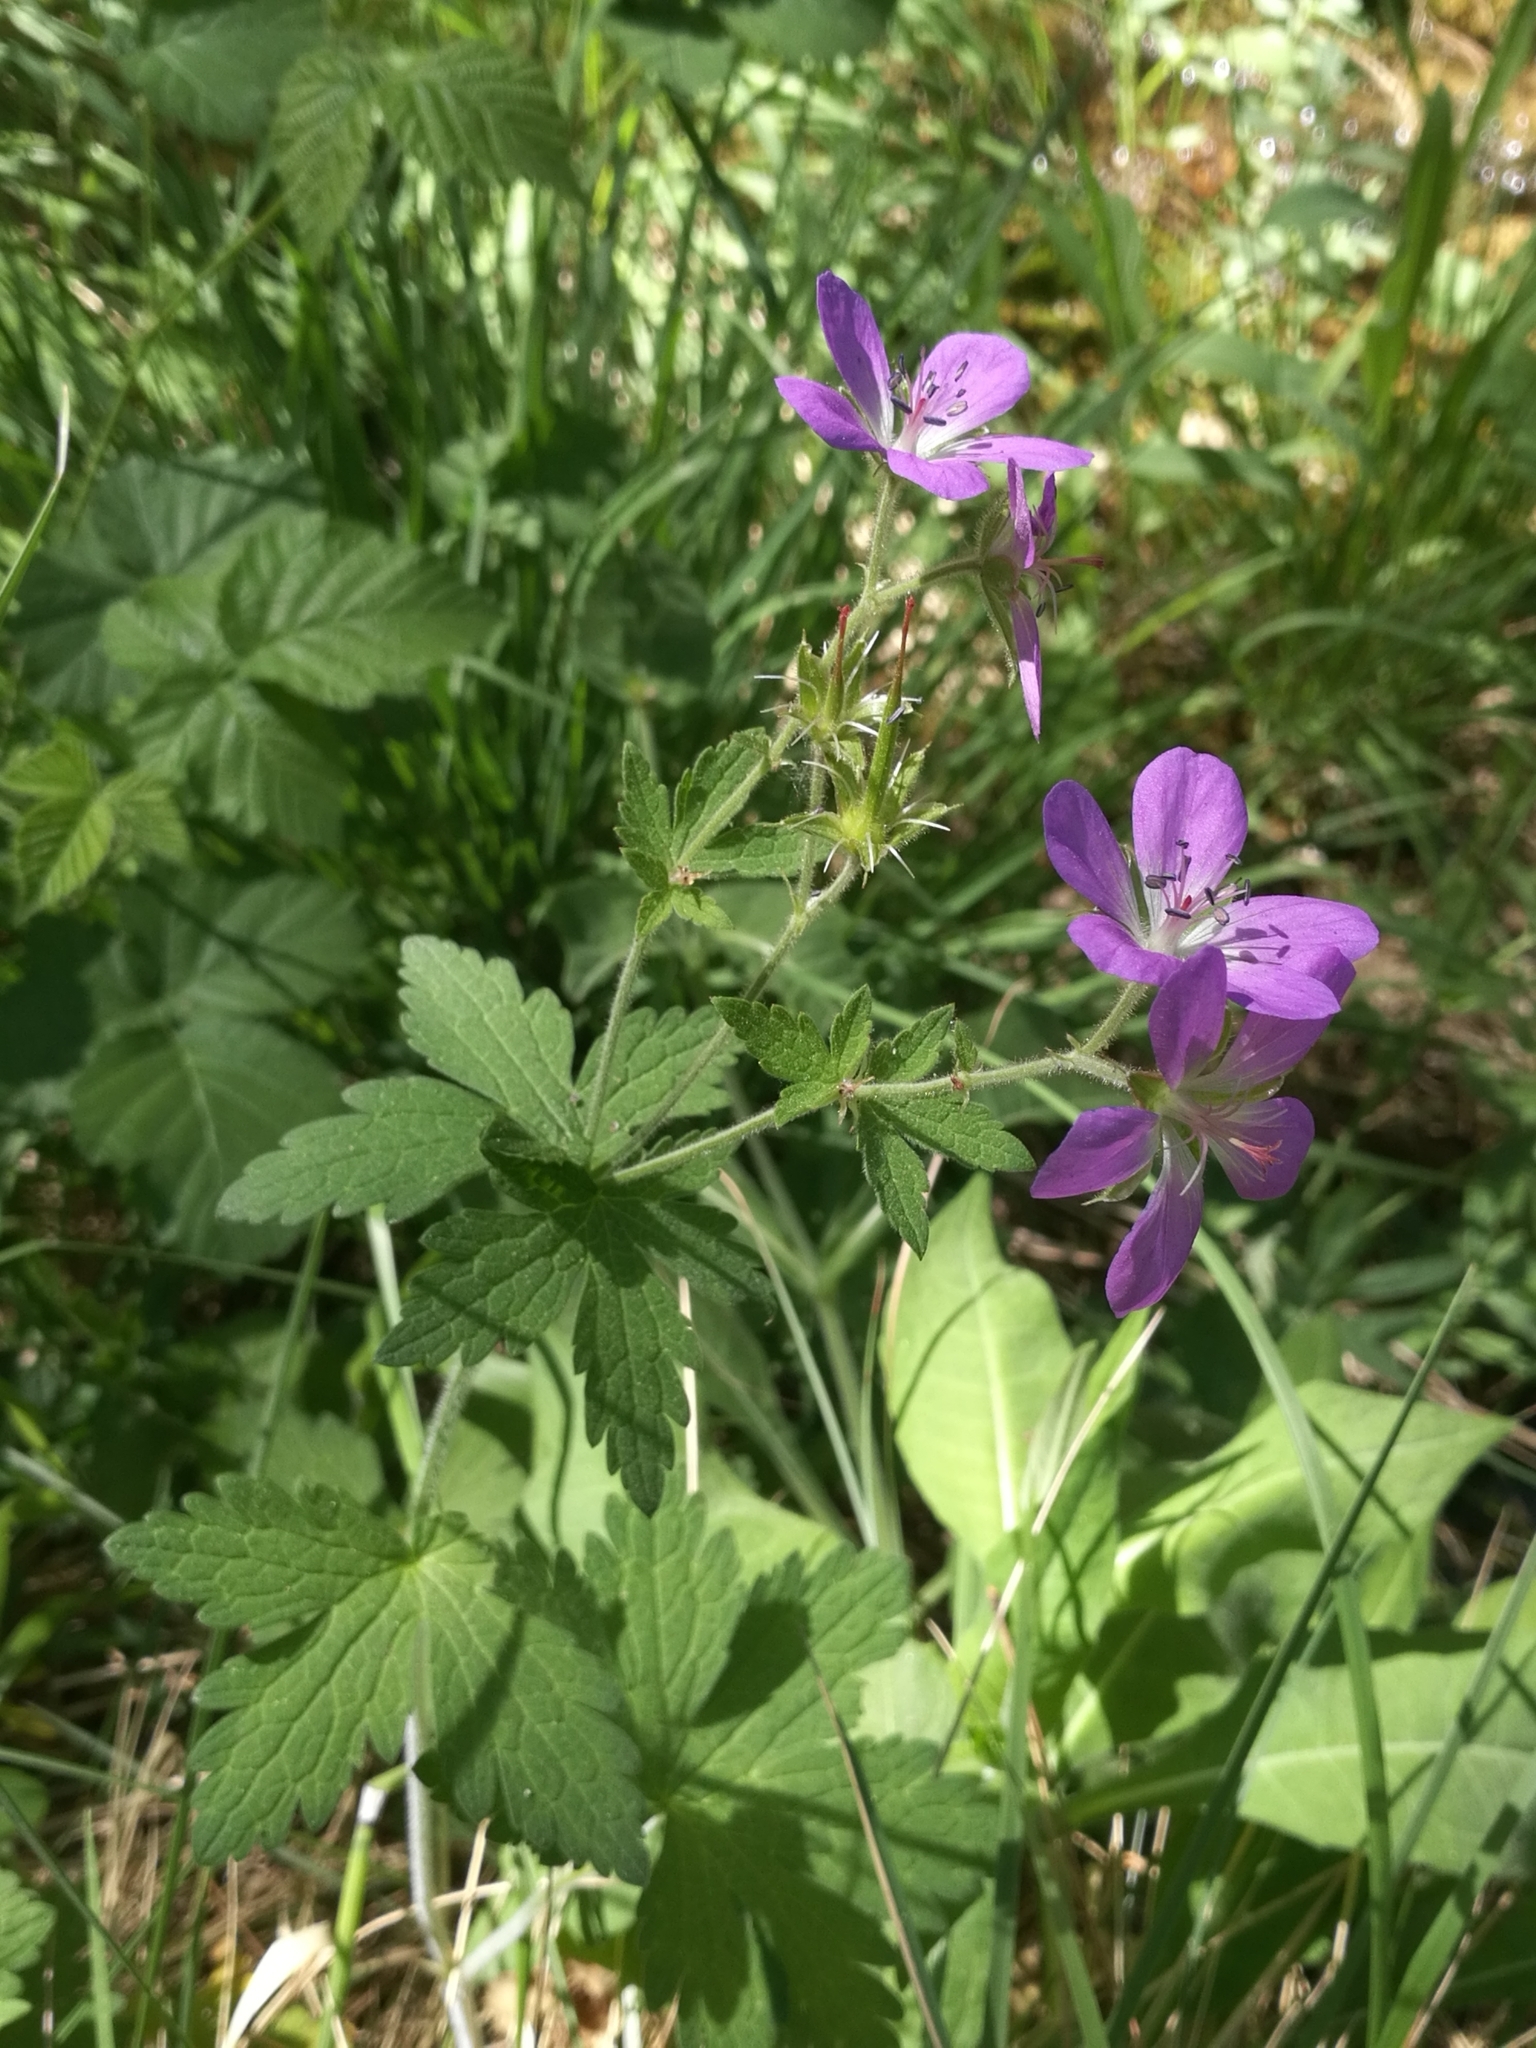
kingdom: Plantae
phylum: Tracheophyta
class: Magnoliopsida
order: Geraniales
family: Geraniaceae
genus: Geranium
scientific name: Geranium sylvaticum
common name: Wood crane's-bill
